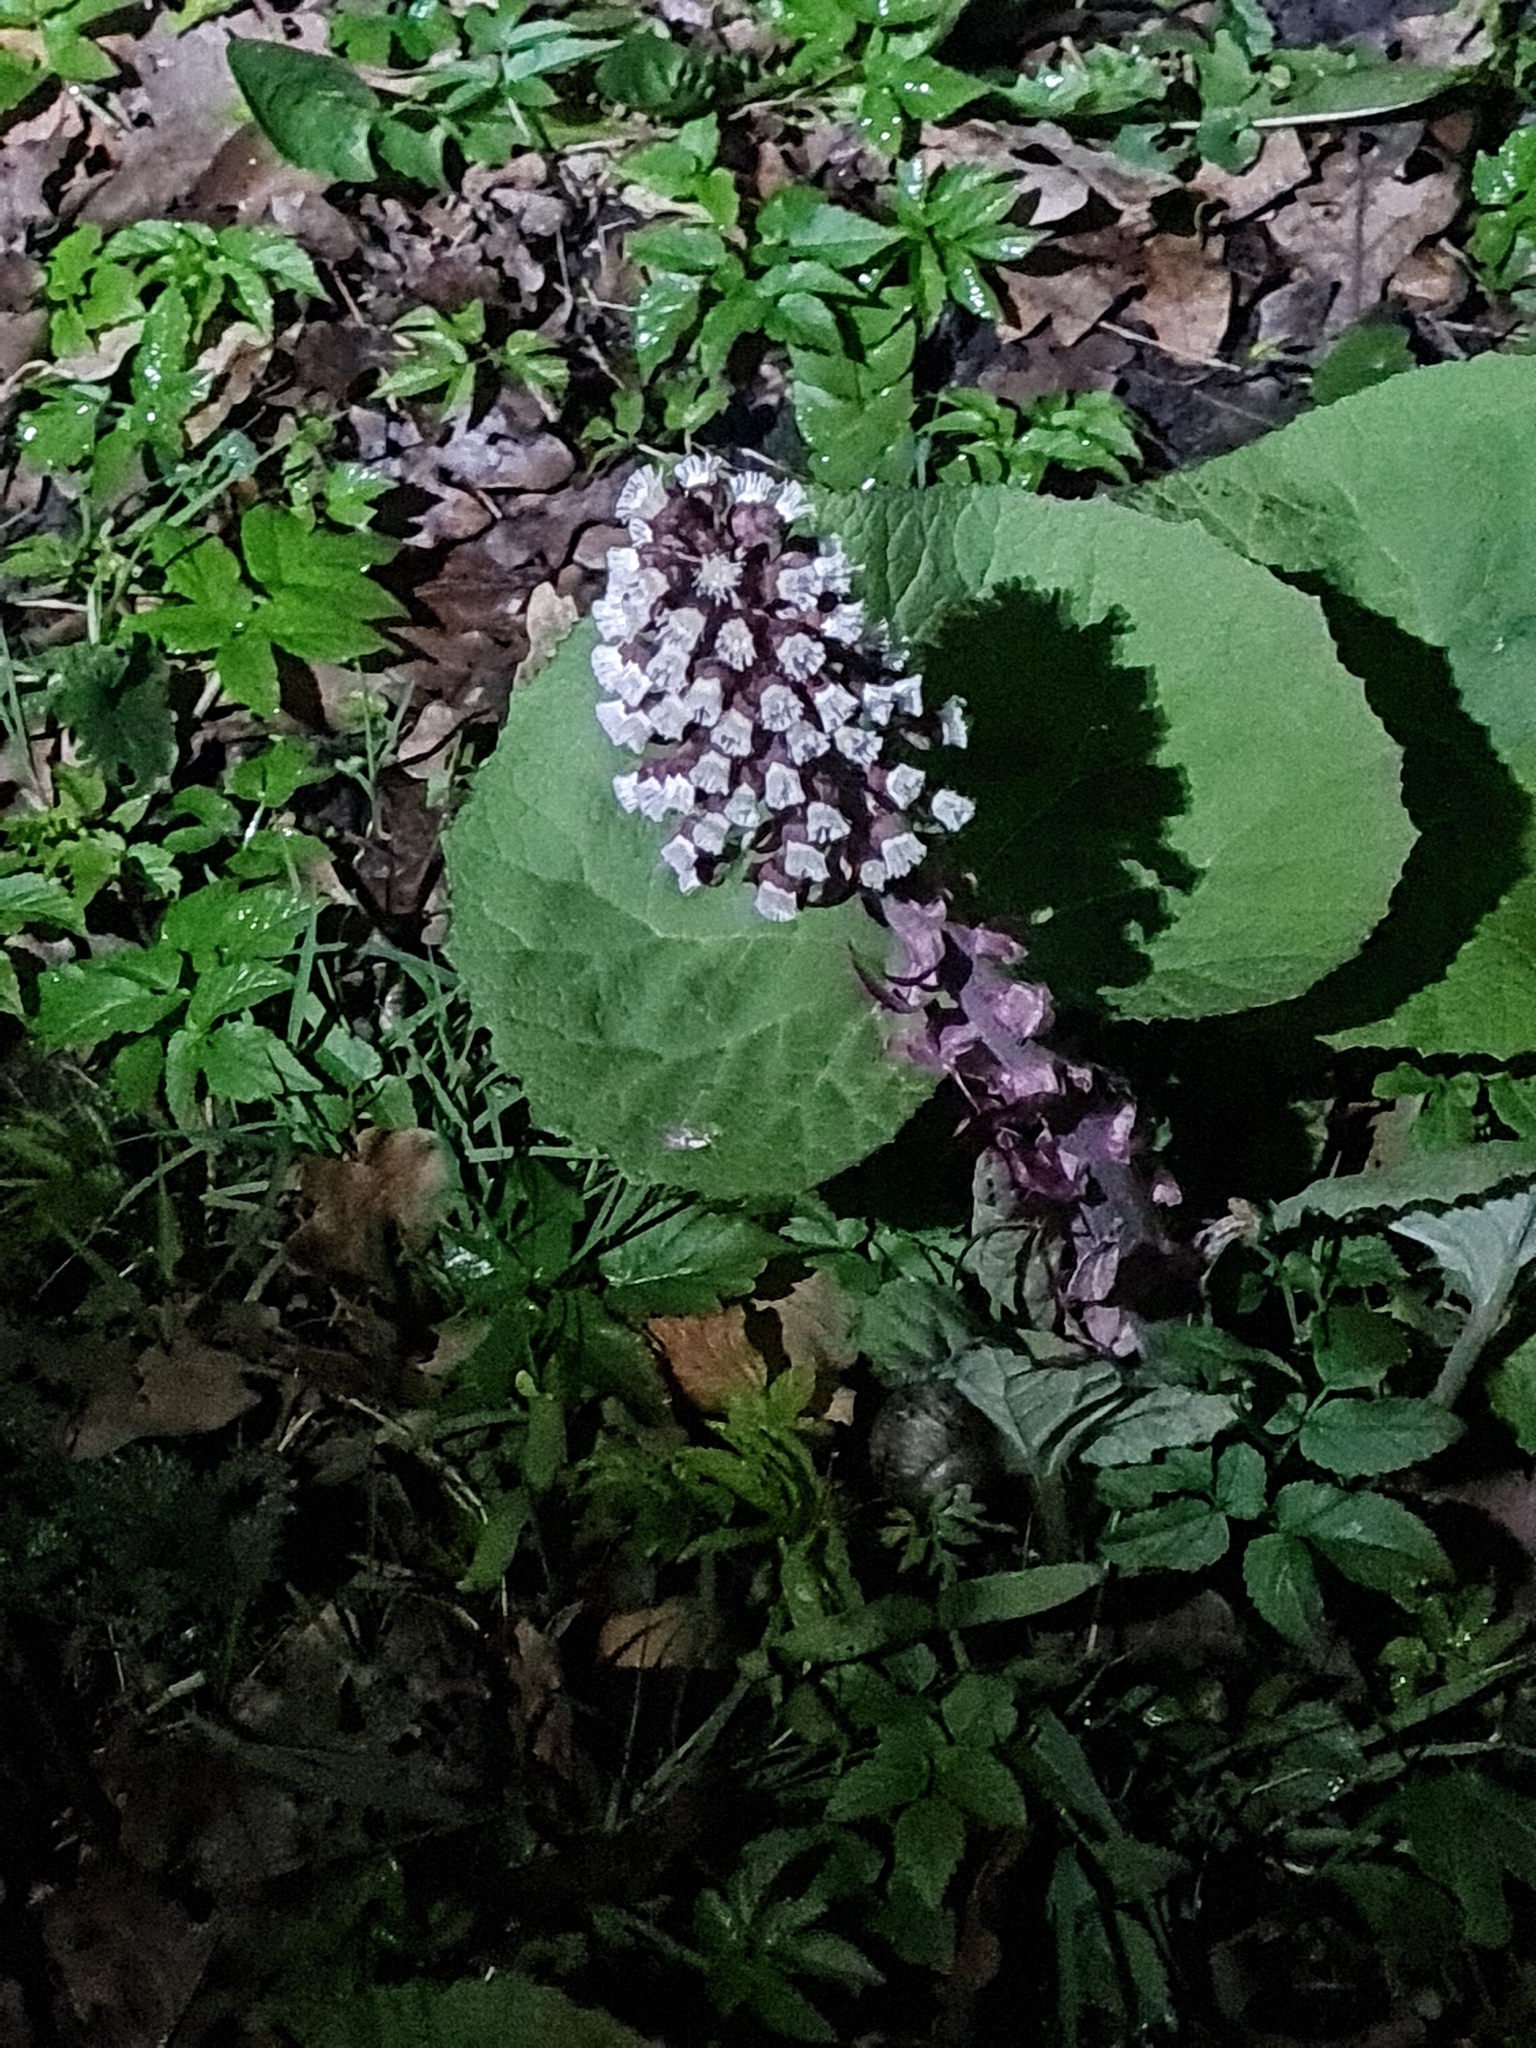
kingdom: Plantae
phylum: Tracheophyta
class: Magnoliopsida
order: Asterales
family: Asteraceae
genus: Petasites
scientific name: Petasites hybridus
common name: Butterbur
